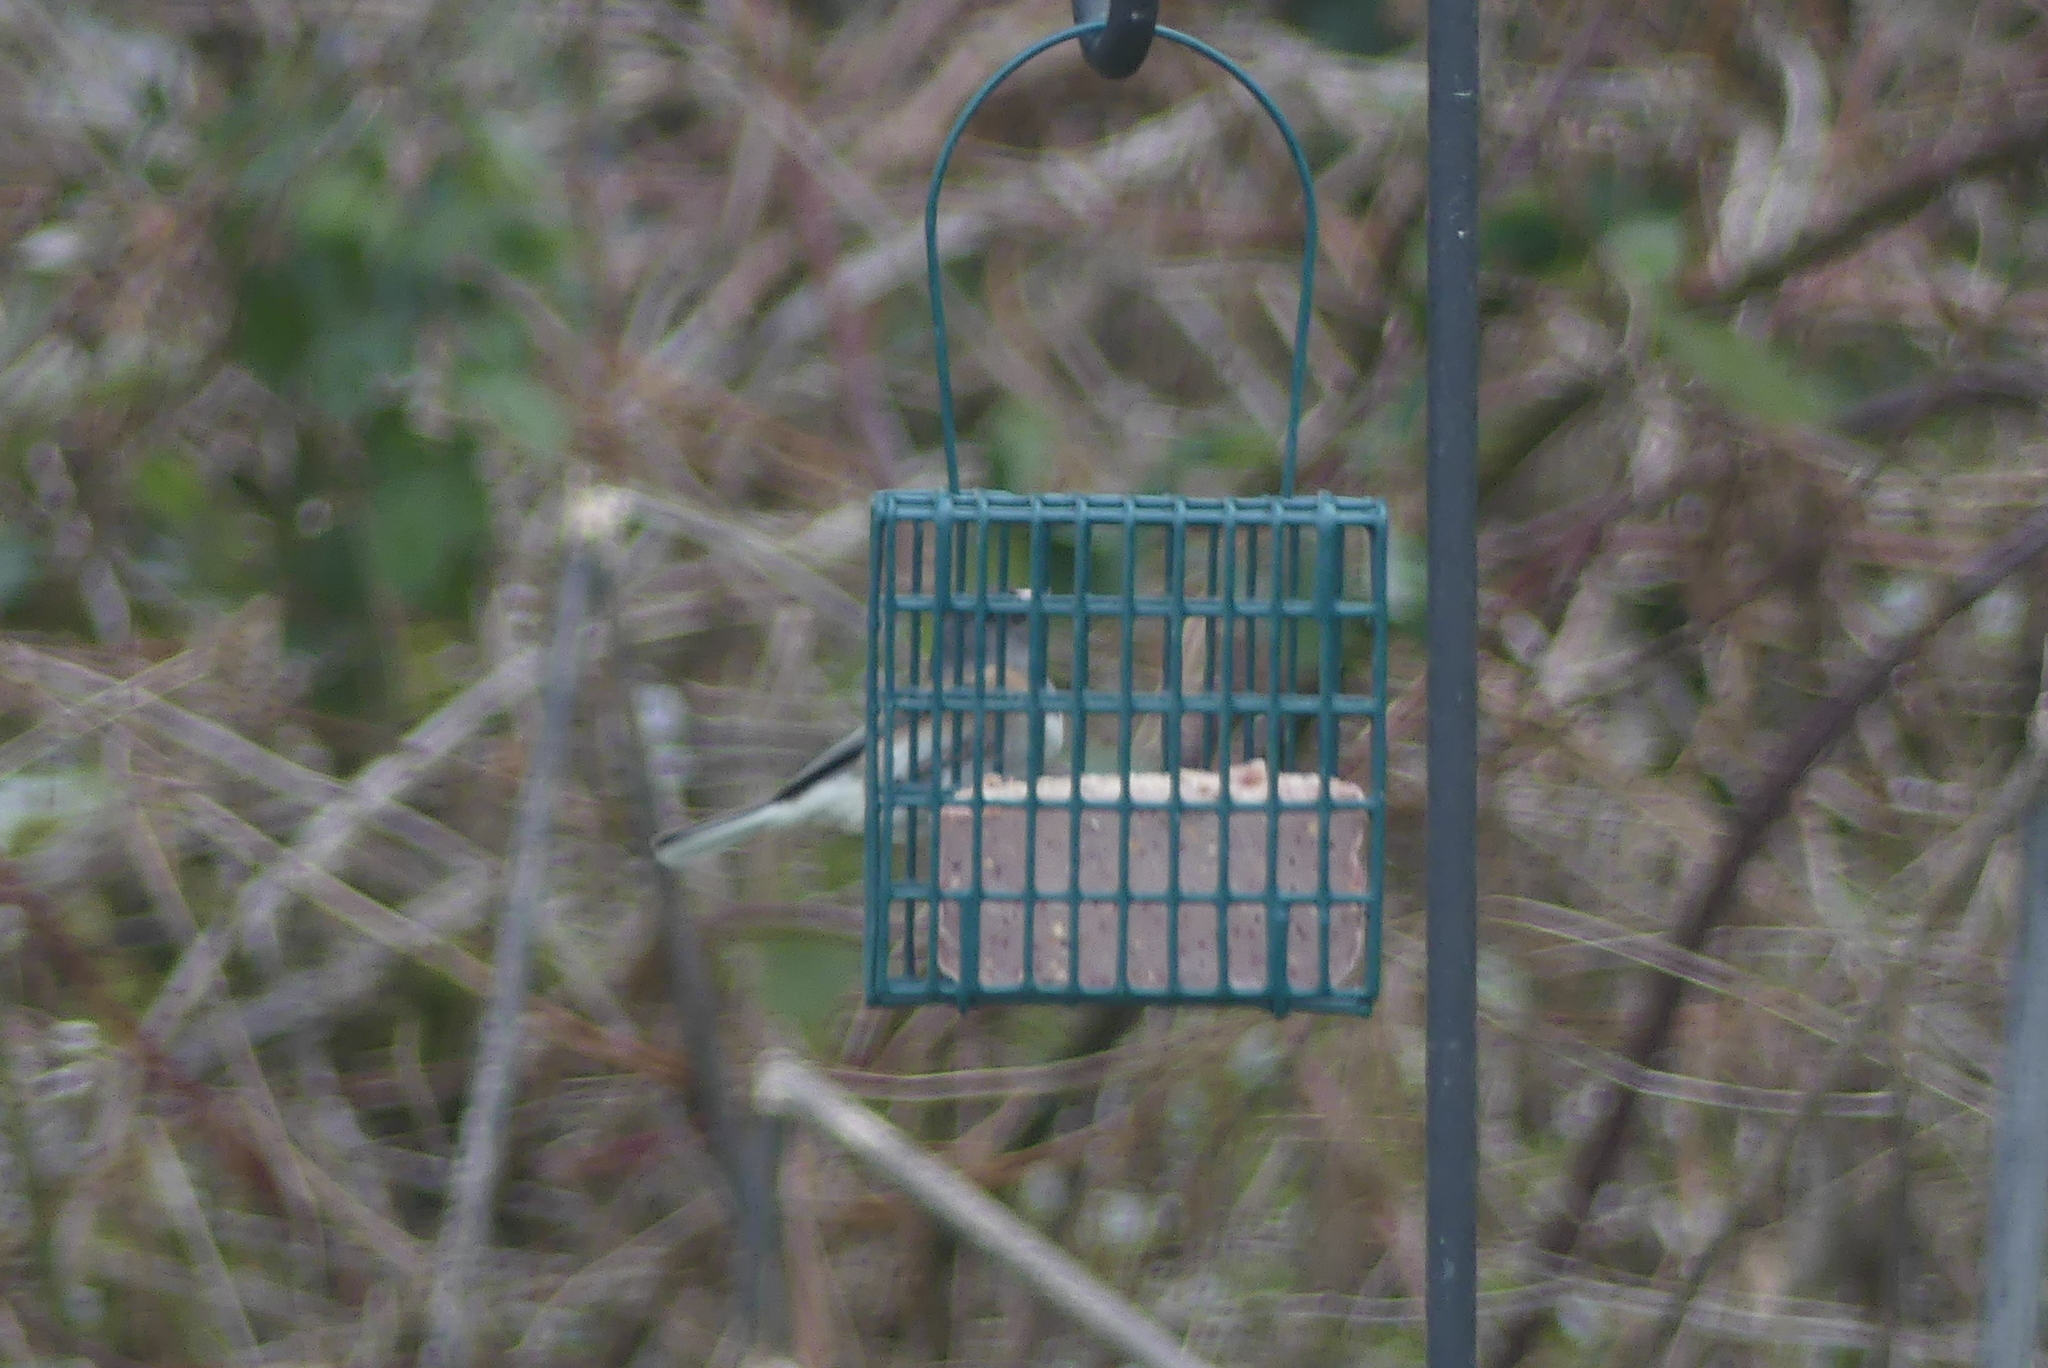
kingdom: Animalia
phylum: Chordata
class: Aves
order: Passeriformes
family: Passerellidae
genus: Junco
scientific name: Junco hyemalis
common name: Dark-eyed junco
